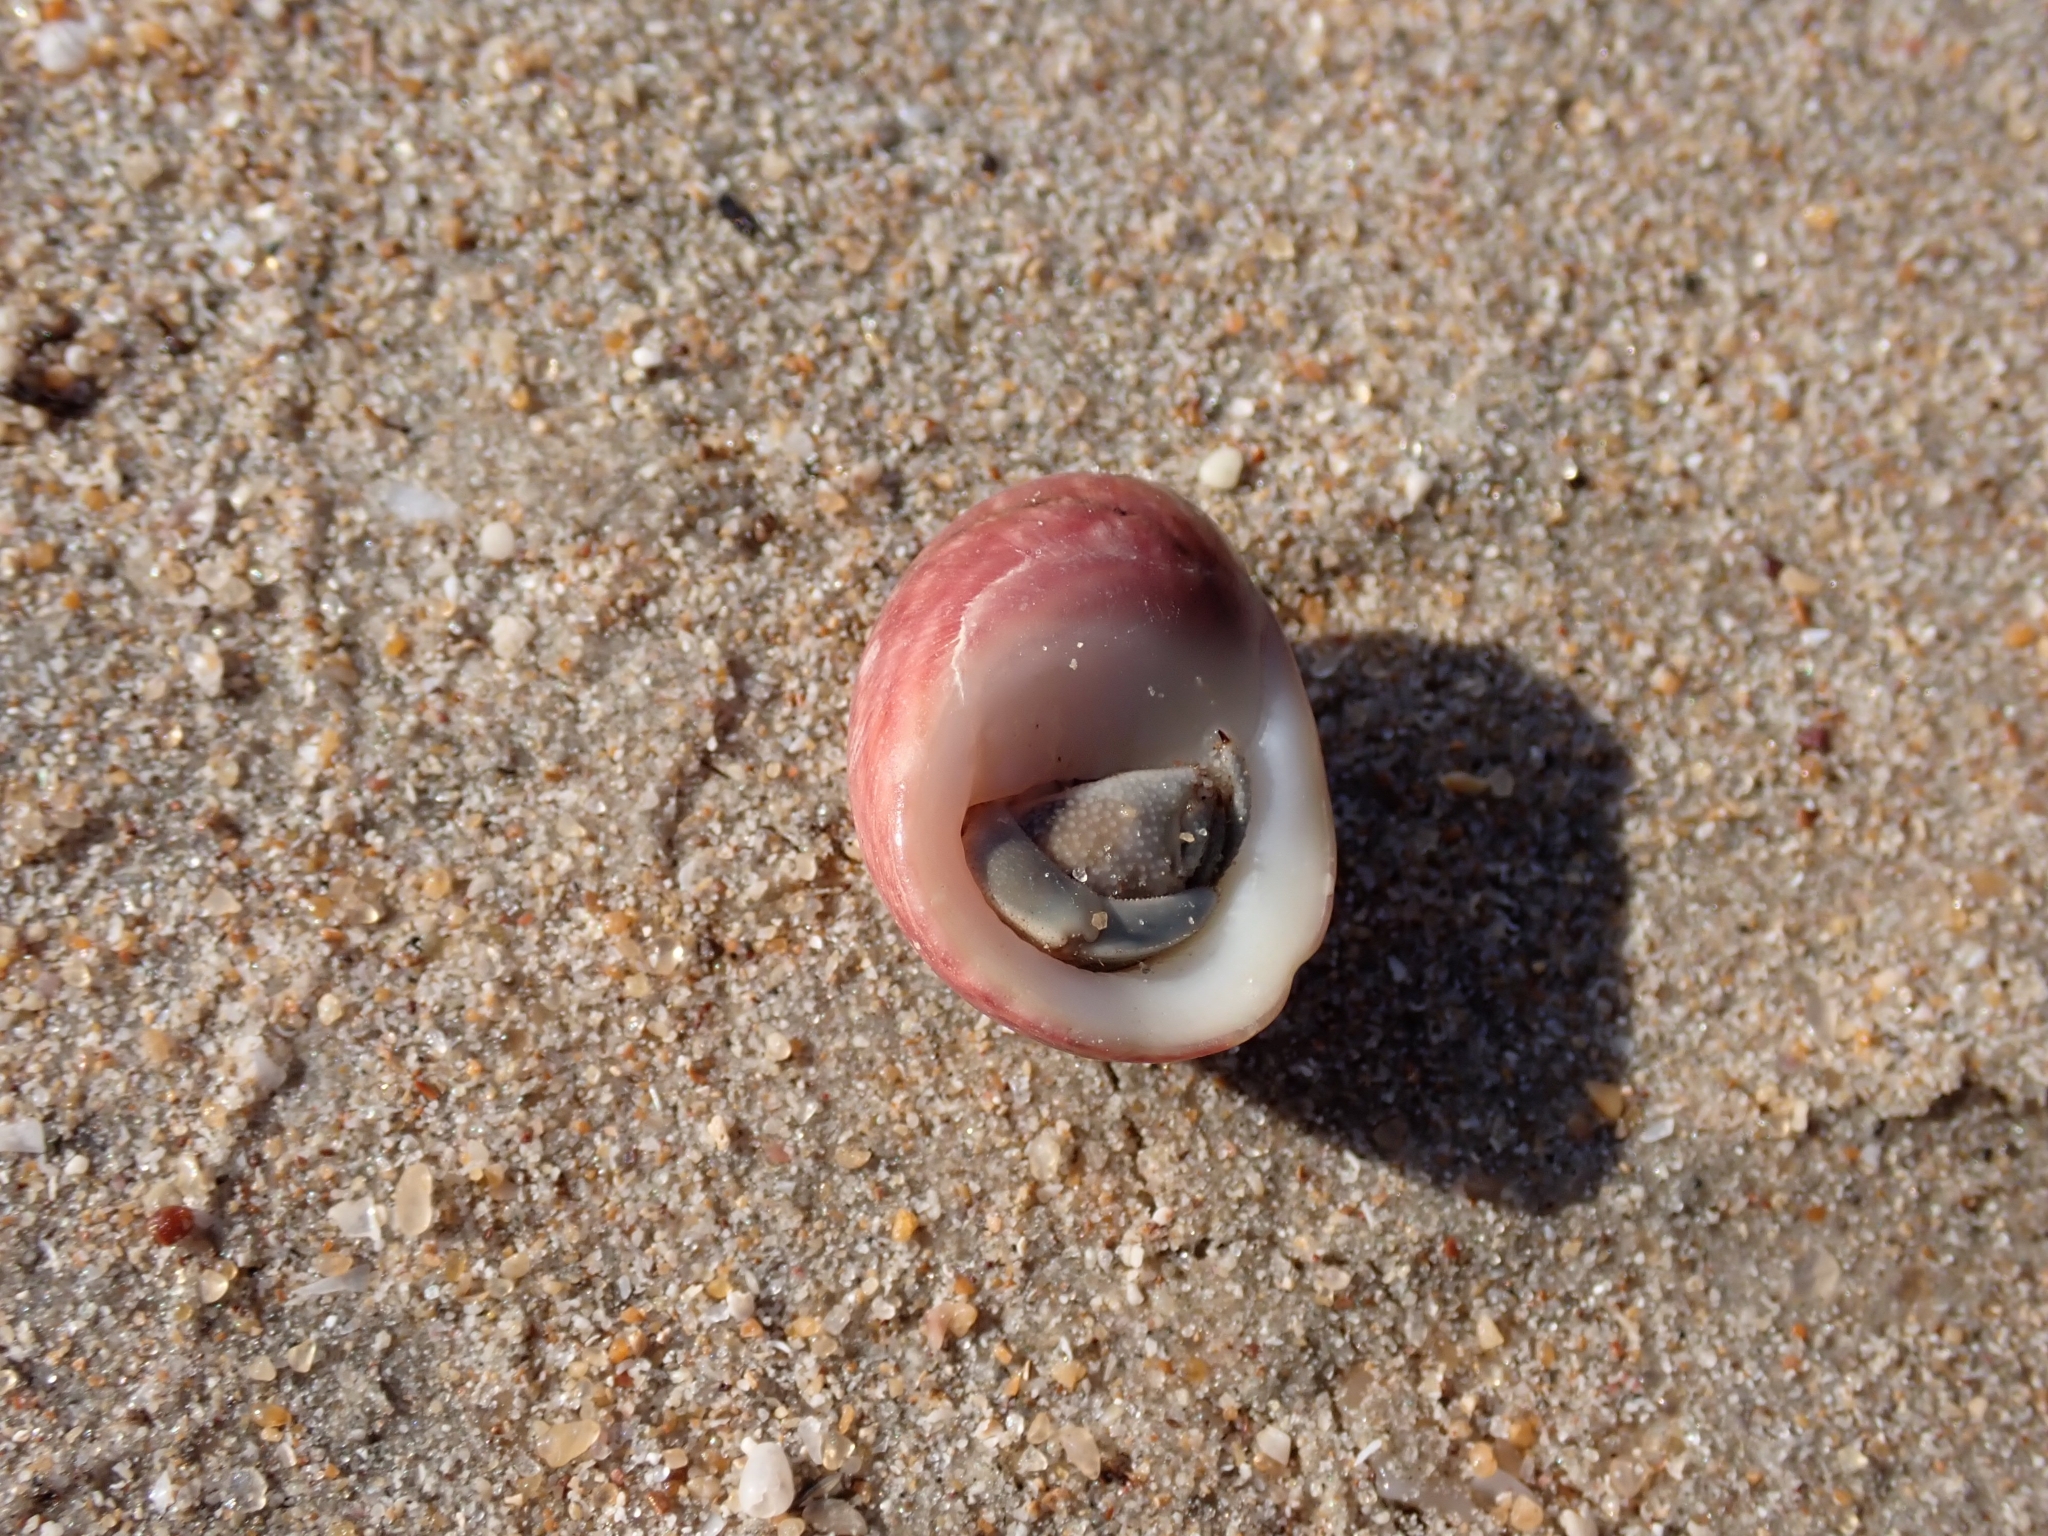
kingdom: Animalia
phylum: Mollusca
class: Gastropoda
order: Cycloneritida
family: Neritidae
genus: Nerita
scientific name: Nerita polita
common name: Polished nerite
